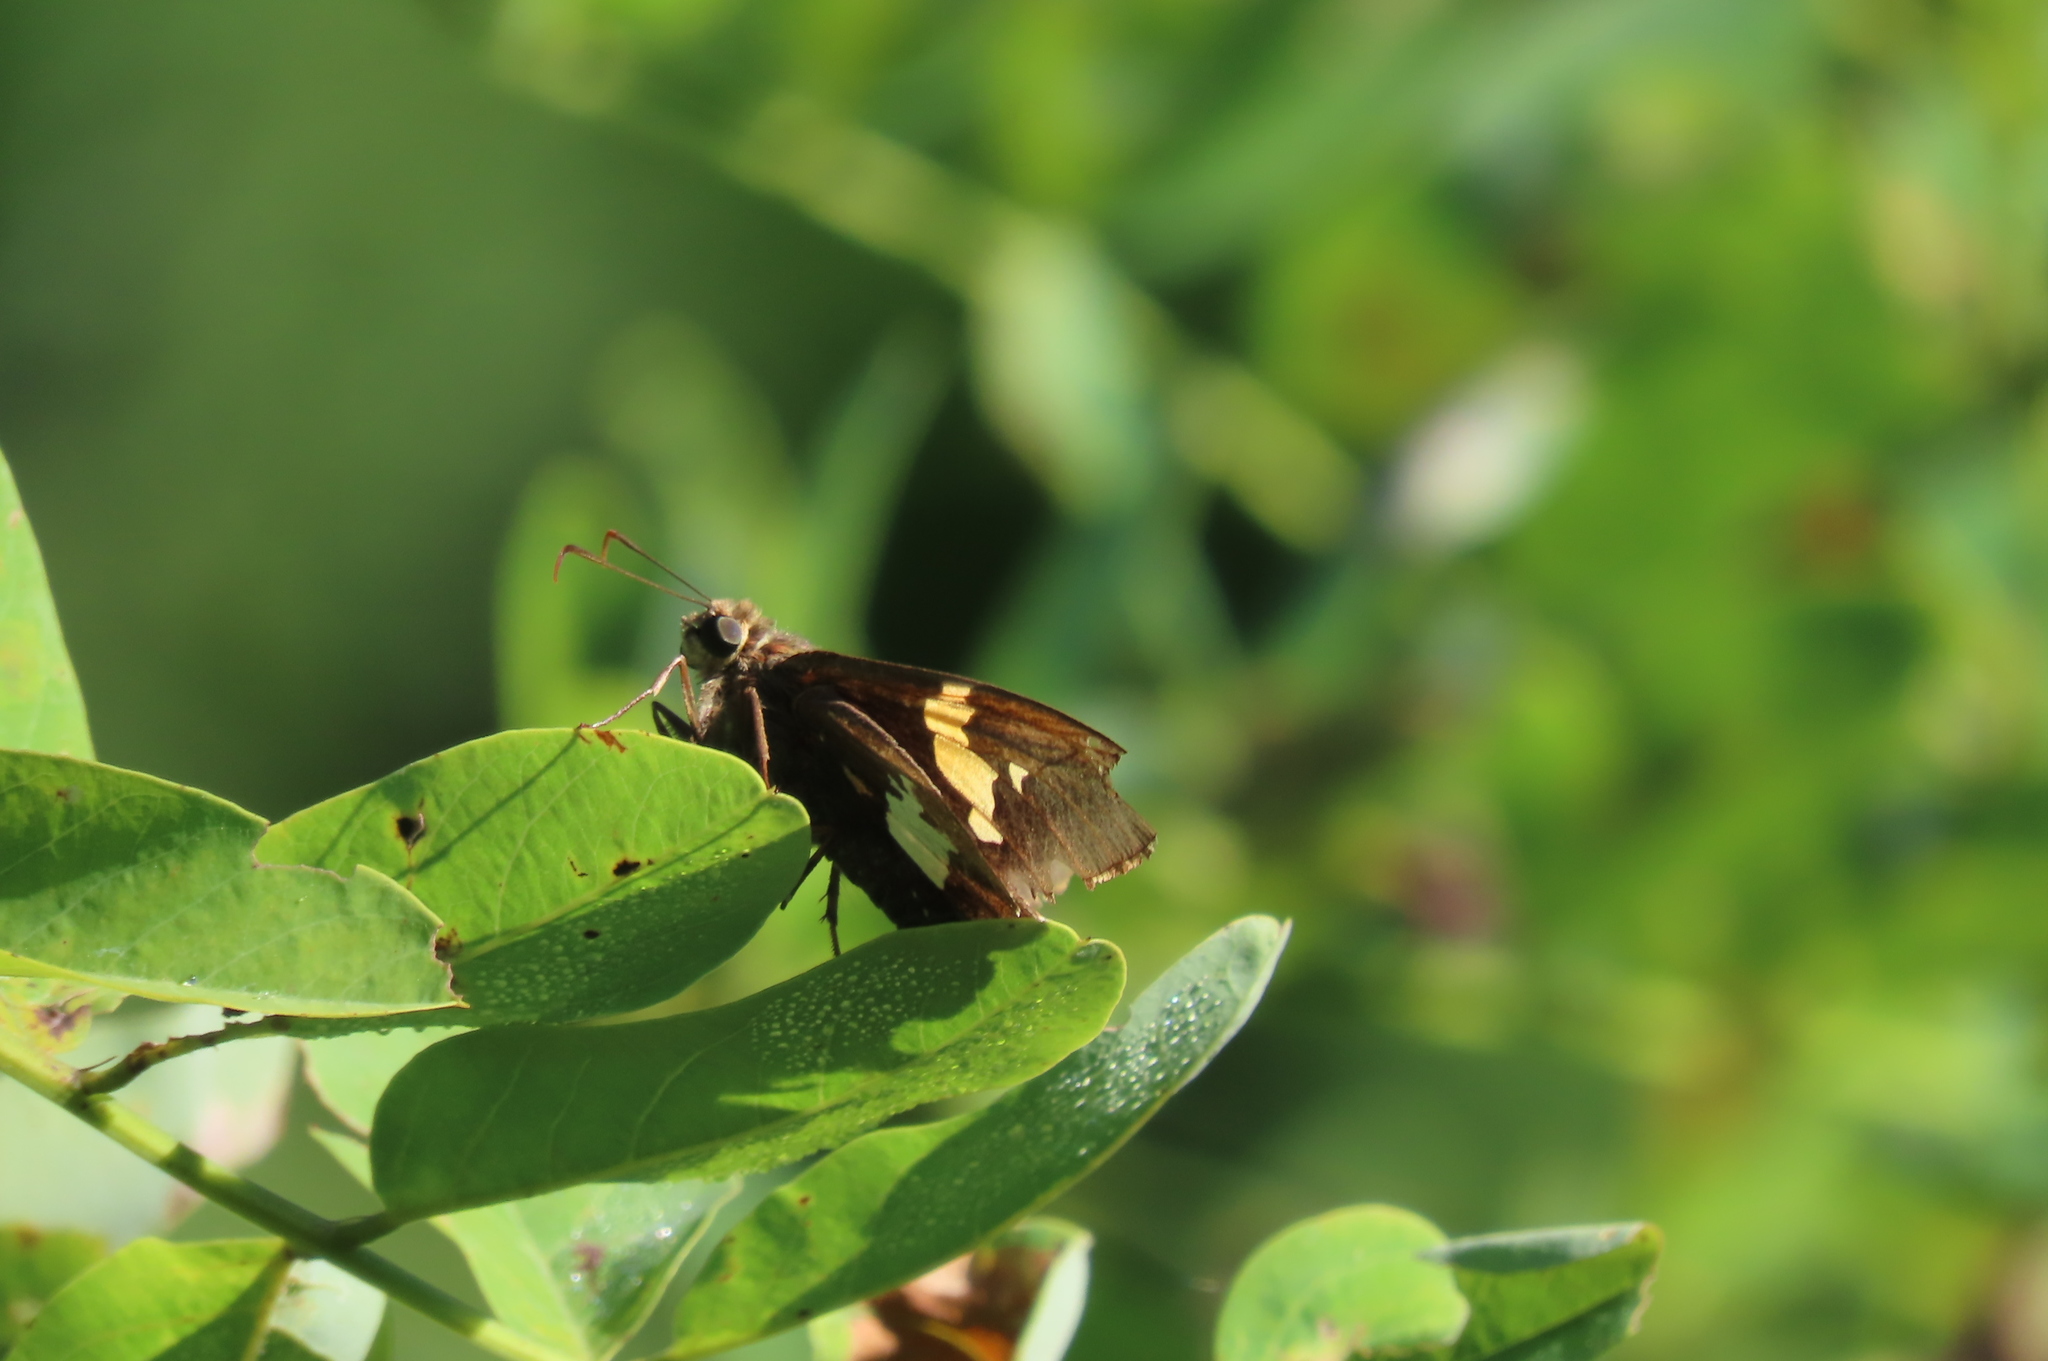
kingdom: Animalia
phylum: Arthropoda
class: Insecta
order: Lepidoptera
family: Hesperiidae
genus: Epargyreus
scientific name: Epargyreus clarus
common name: Silver-spotted skipper
